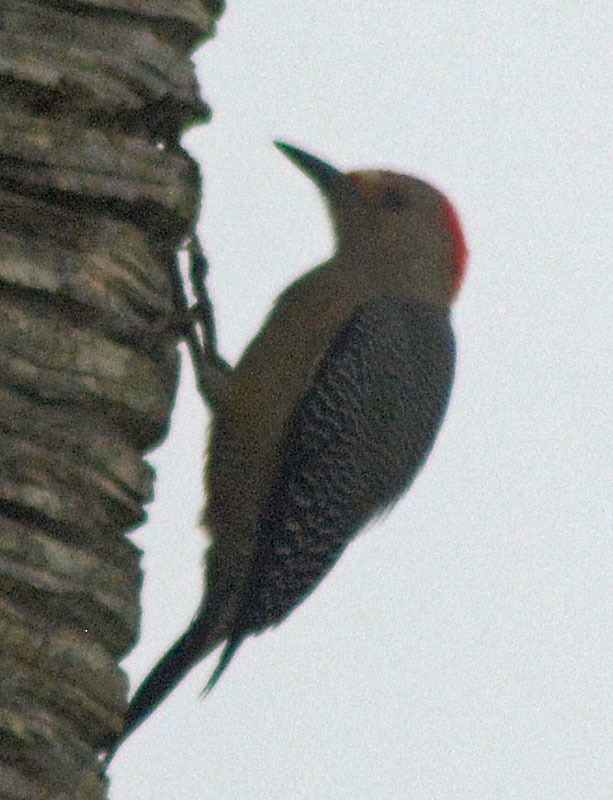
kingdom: Animalia
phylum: Chordata
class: Aves
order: Piciformes
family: Picidae
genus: Melanerpes
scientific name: Melanerpes aurifrons
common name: Golden-fronted woodpecker
